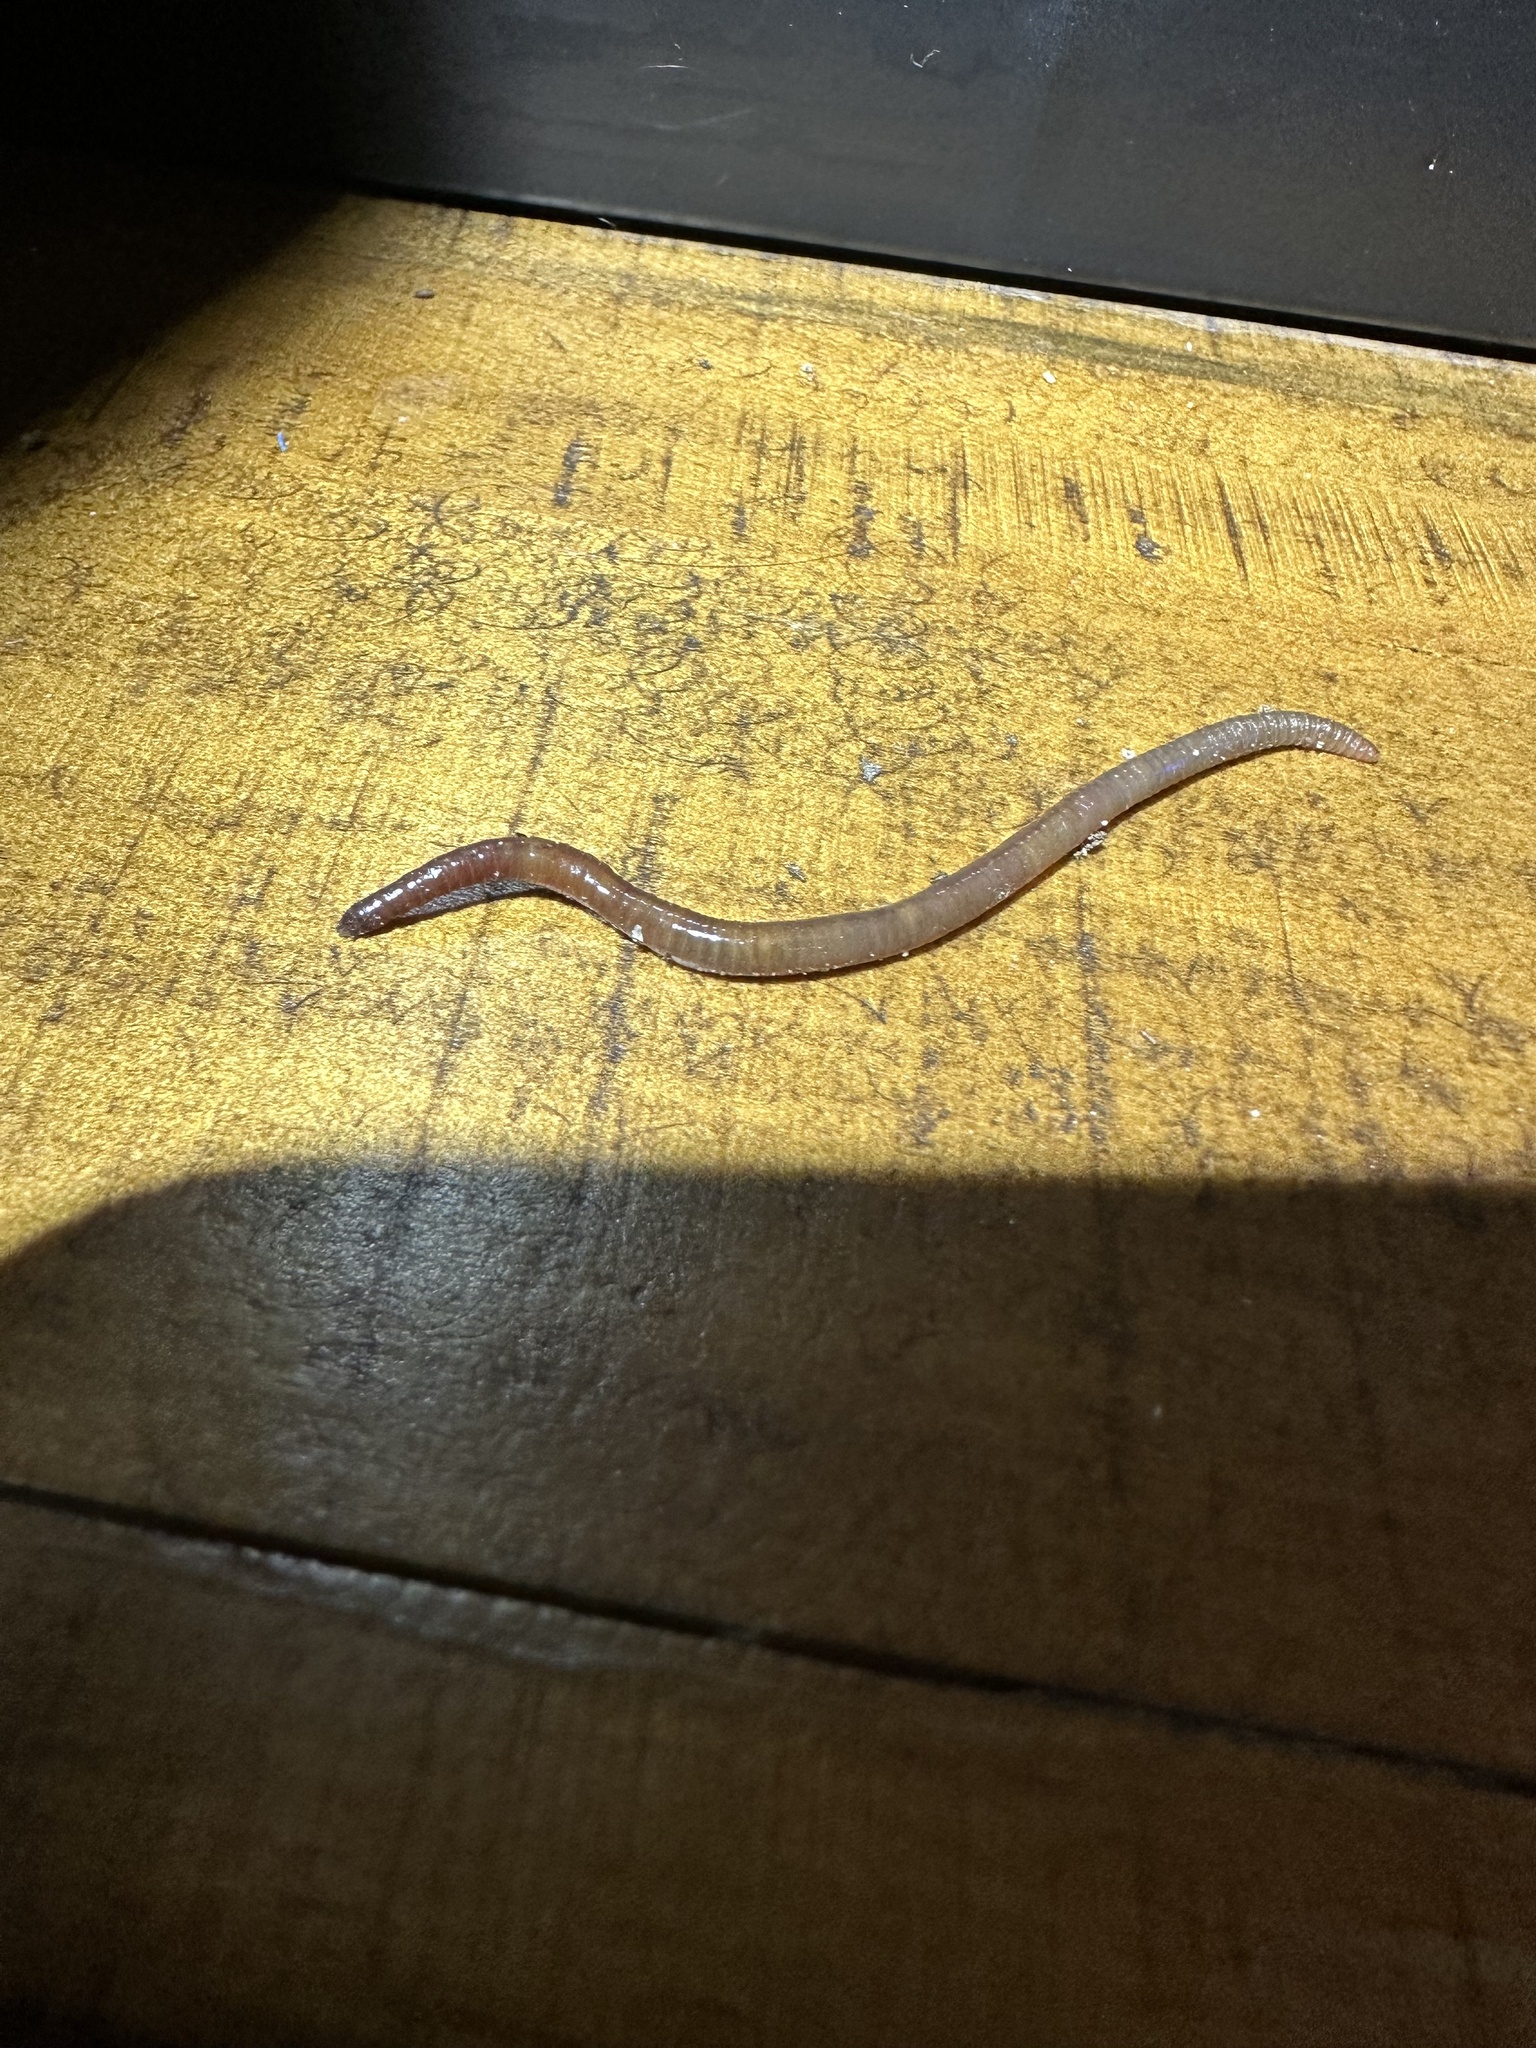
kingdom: Animalia
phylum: Annelida
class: Clitellata
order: Crassiclitellata
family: Lumbricidae
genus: Lumbricus
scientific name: Lumbricus terrestris
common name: Common earthworm
